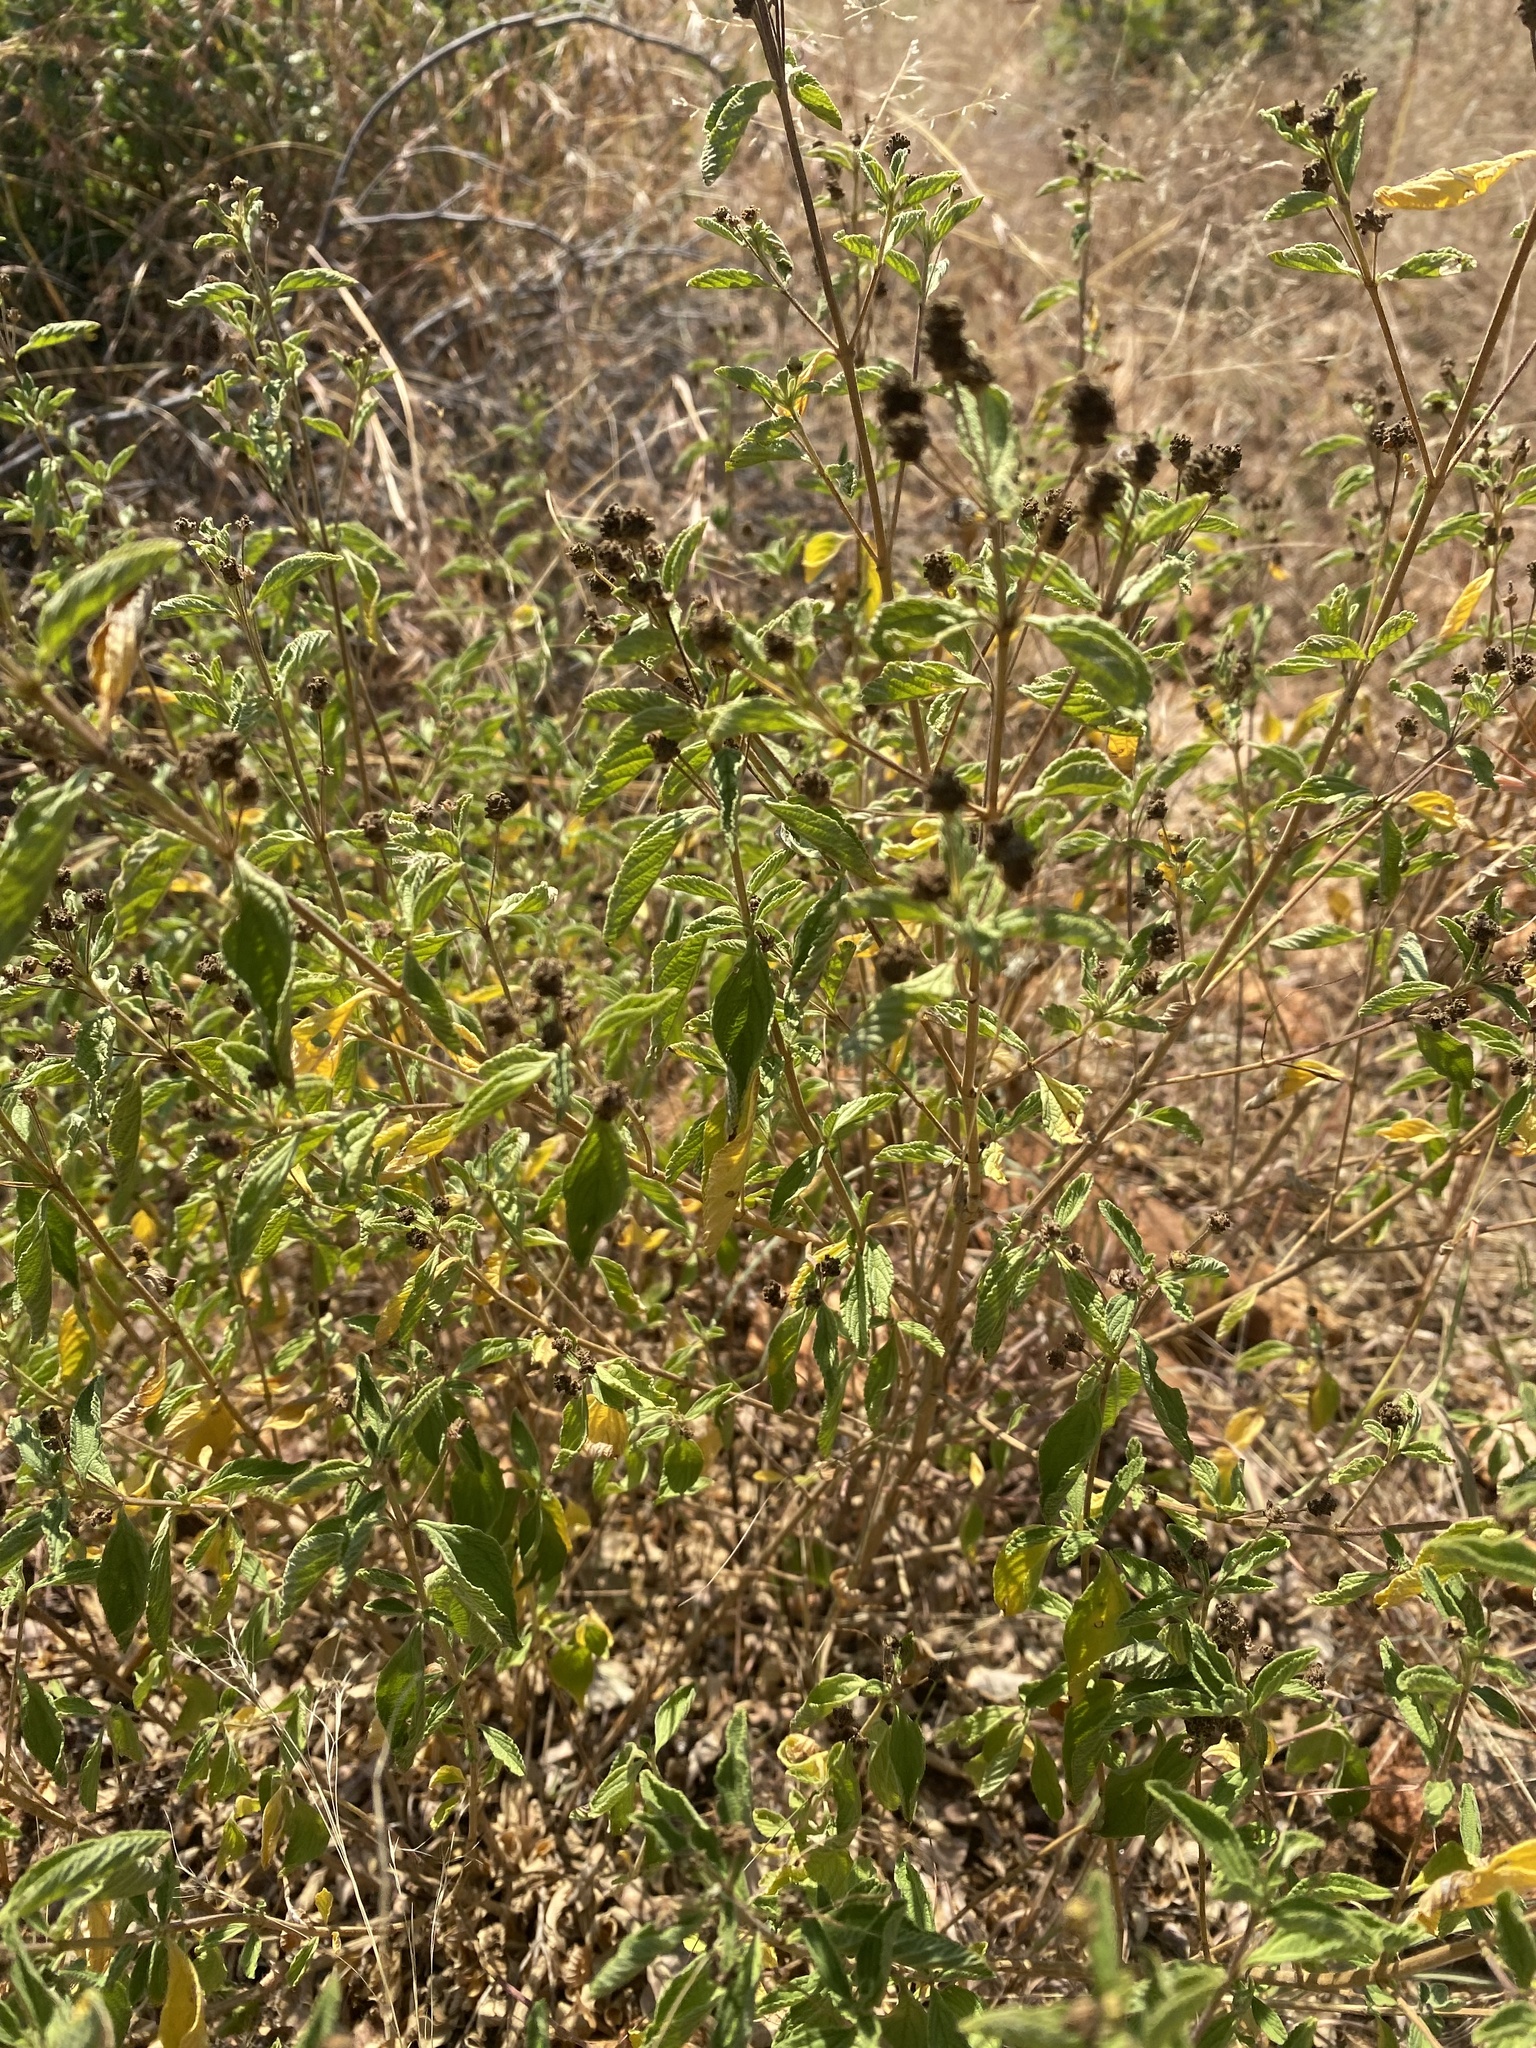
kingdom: Plantae
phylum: Tracheophyta
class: Magnoliopsida
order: Lamiales
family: Verbenaceae
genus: Lippia
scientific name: Lippia javanica
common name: Lemonbush
